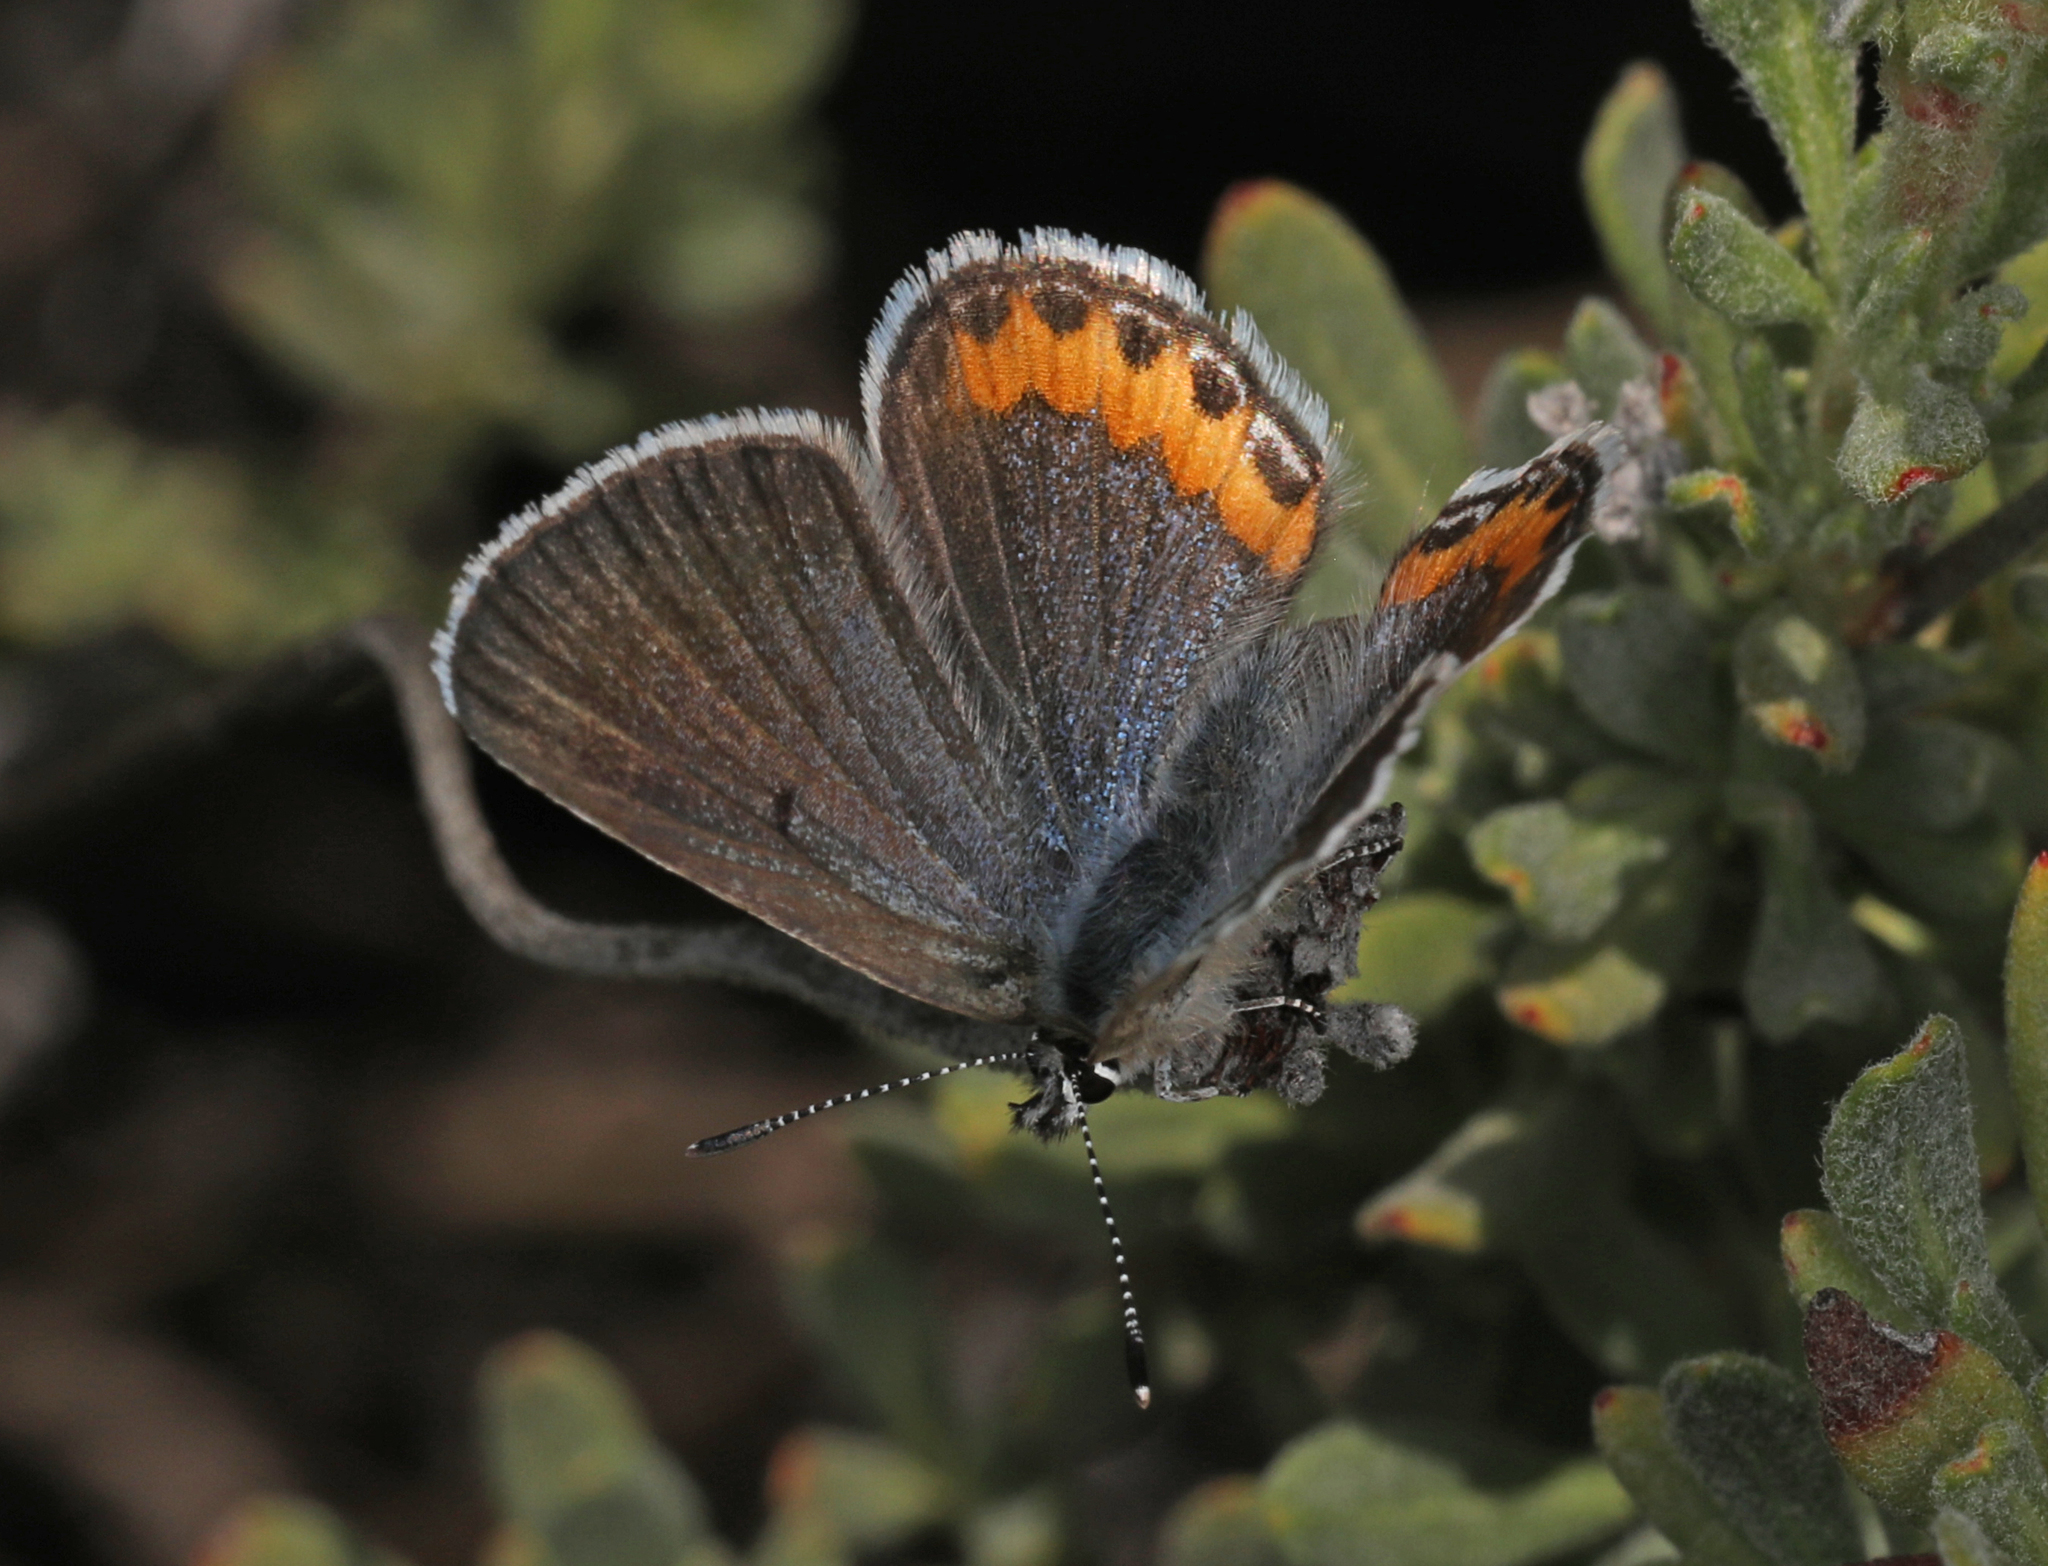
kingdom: Animalia
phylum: Arthropoda
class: Insecta
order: Lepidoptera
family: Lycaenidae
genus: Icaricia
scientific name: Icaricia acmon
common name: Acmon blue
